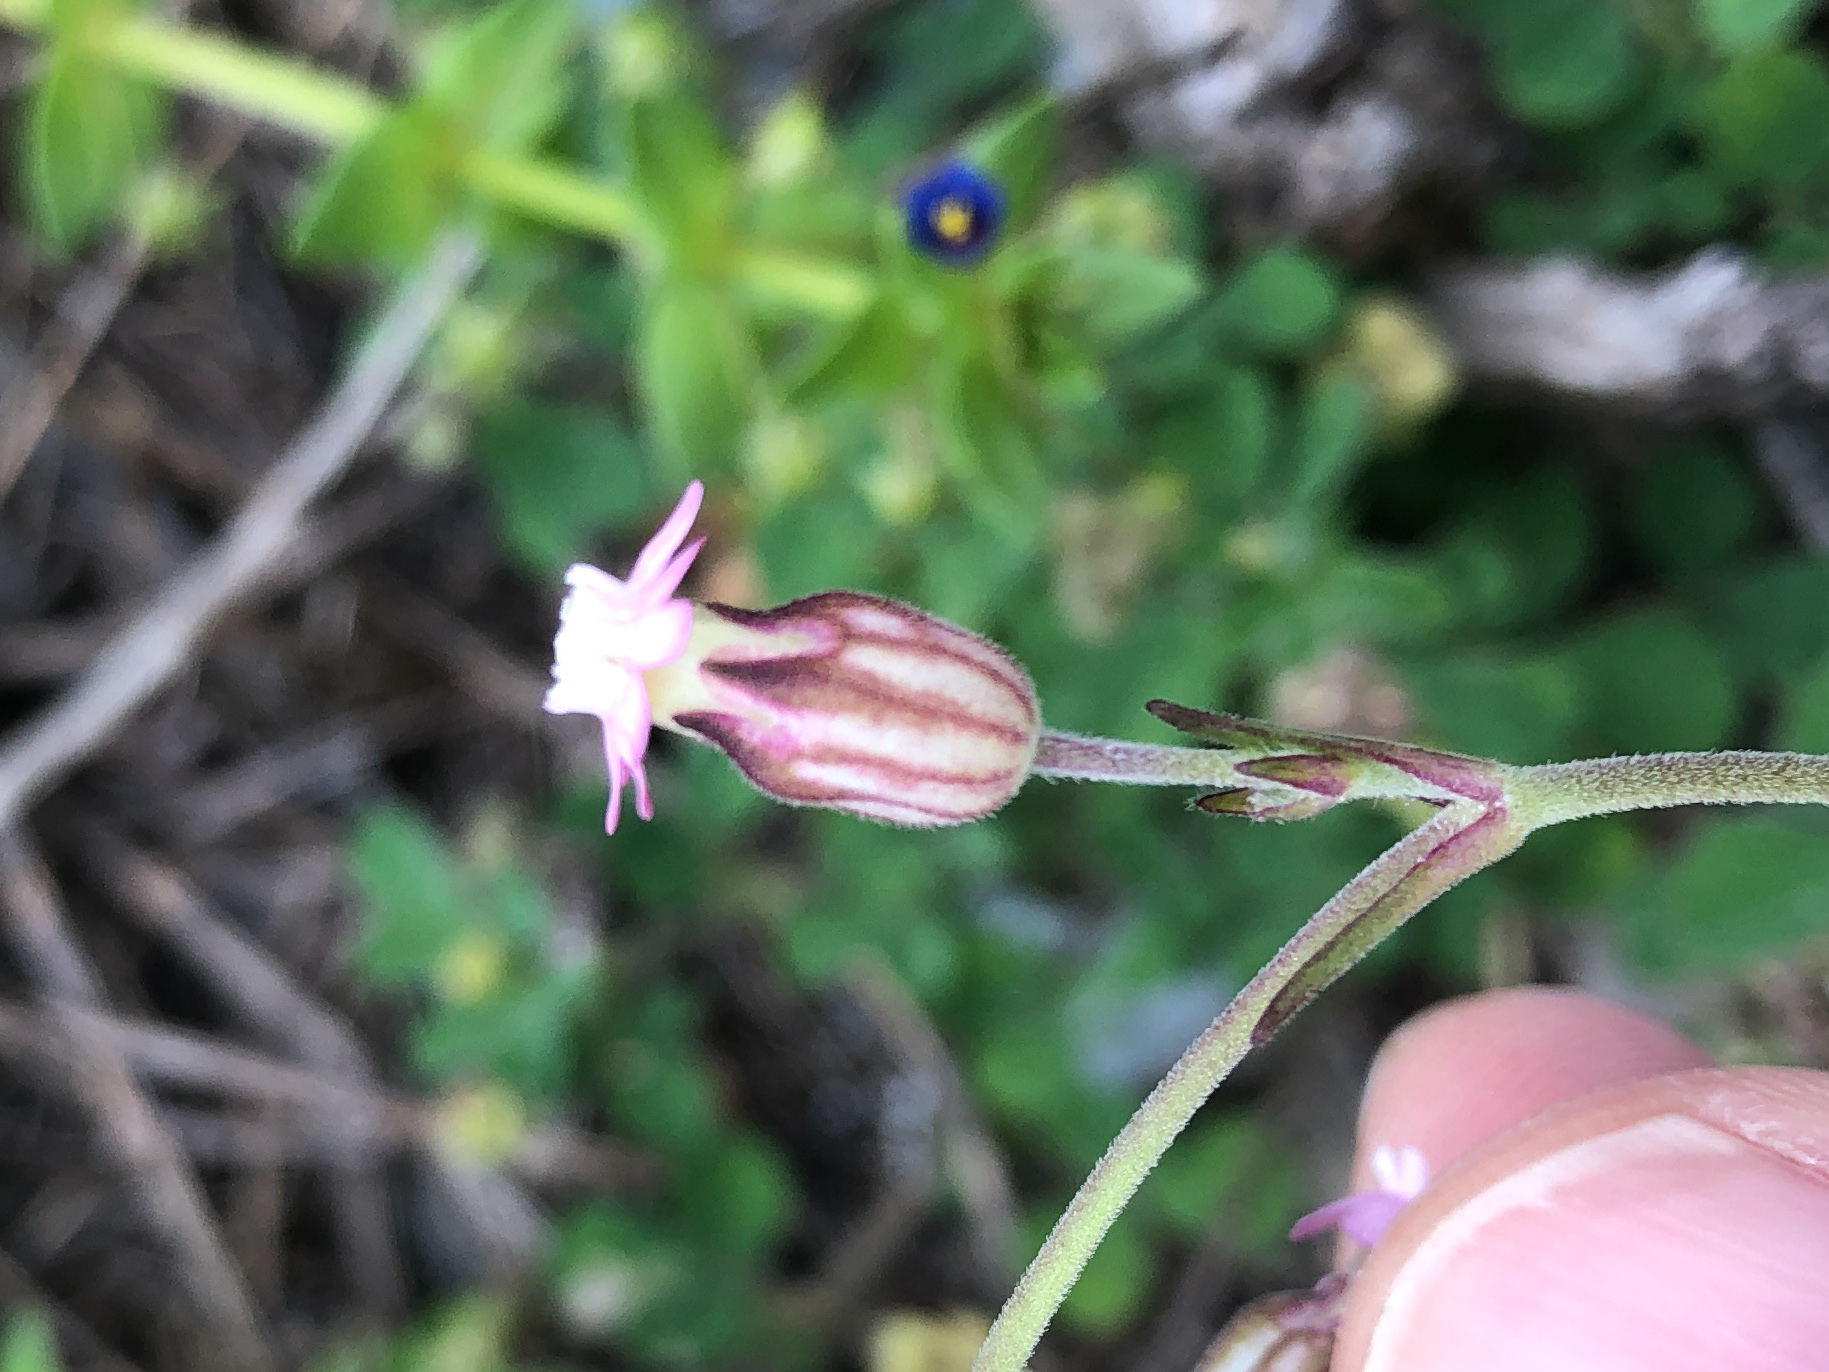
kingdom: Plantae
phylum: Tracheophyta
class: Magnoliopsida
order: Caryophyllales
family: Caryophyllaceae
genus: Silene
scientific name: Silene aprica
